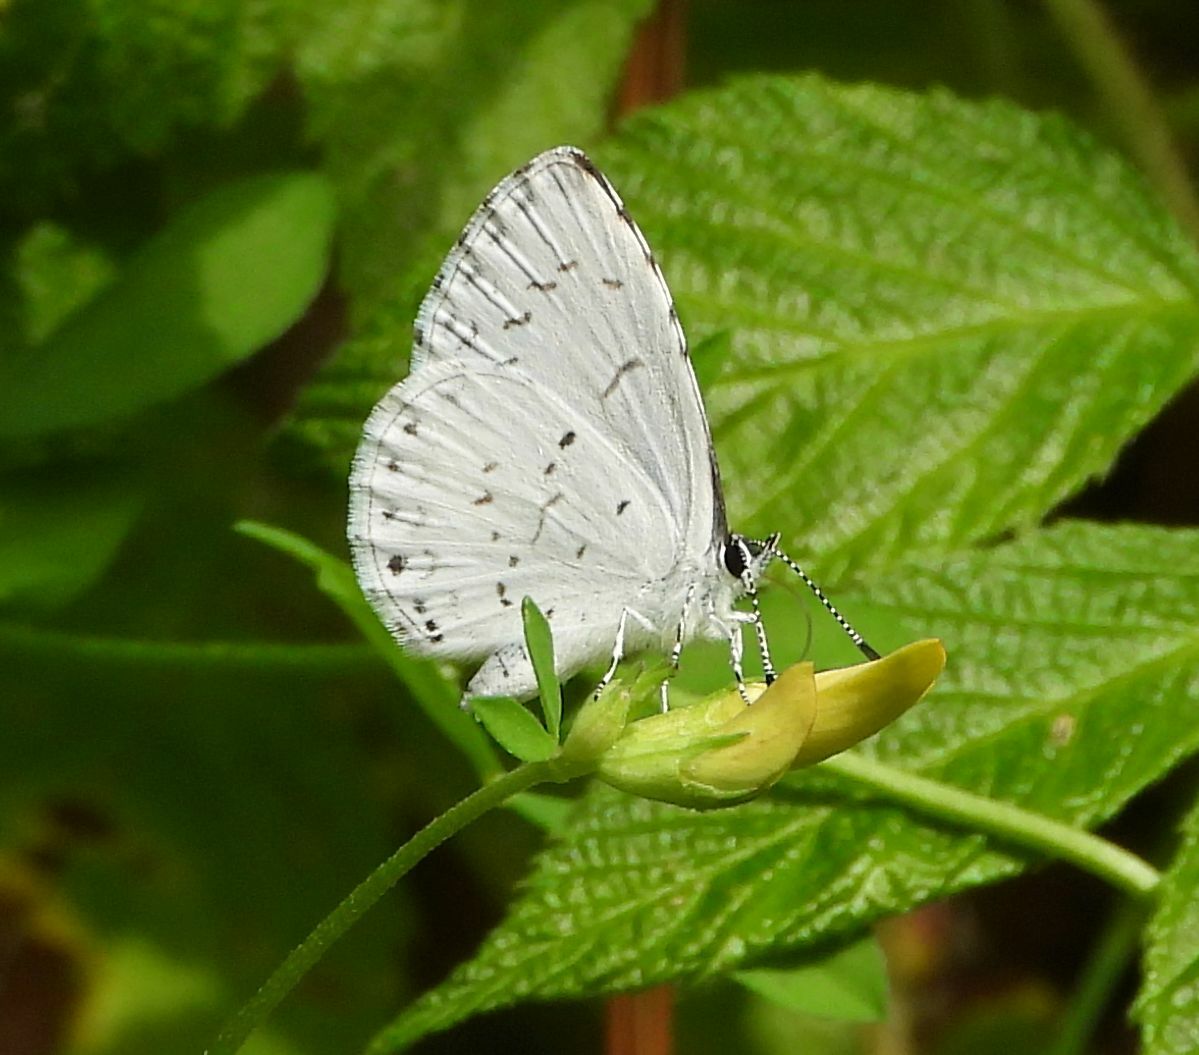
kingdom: Animalia
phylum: Arthropoda
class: Insecta
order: Lepidoptera
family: Lycaenidae
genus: Cyaniris
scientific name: Cyaniris neglecta
